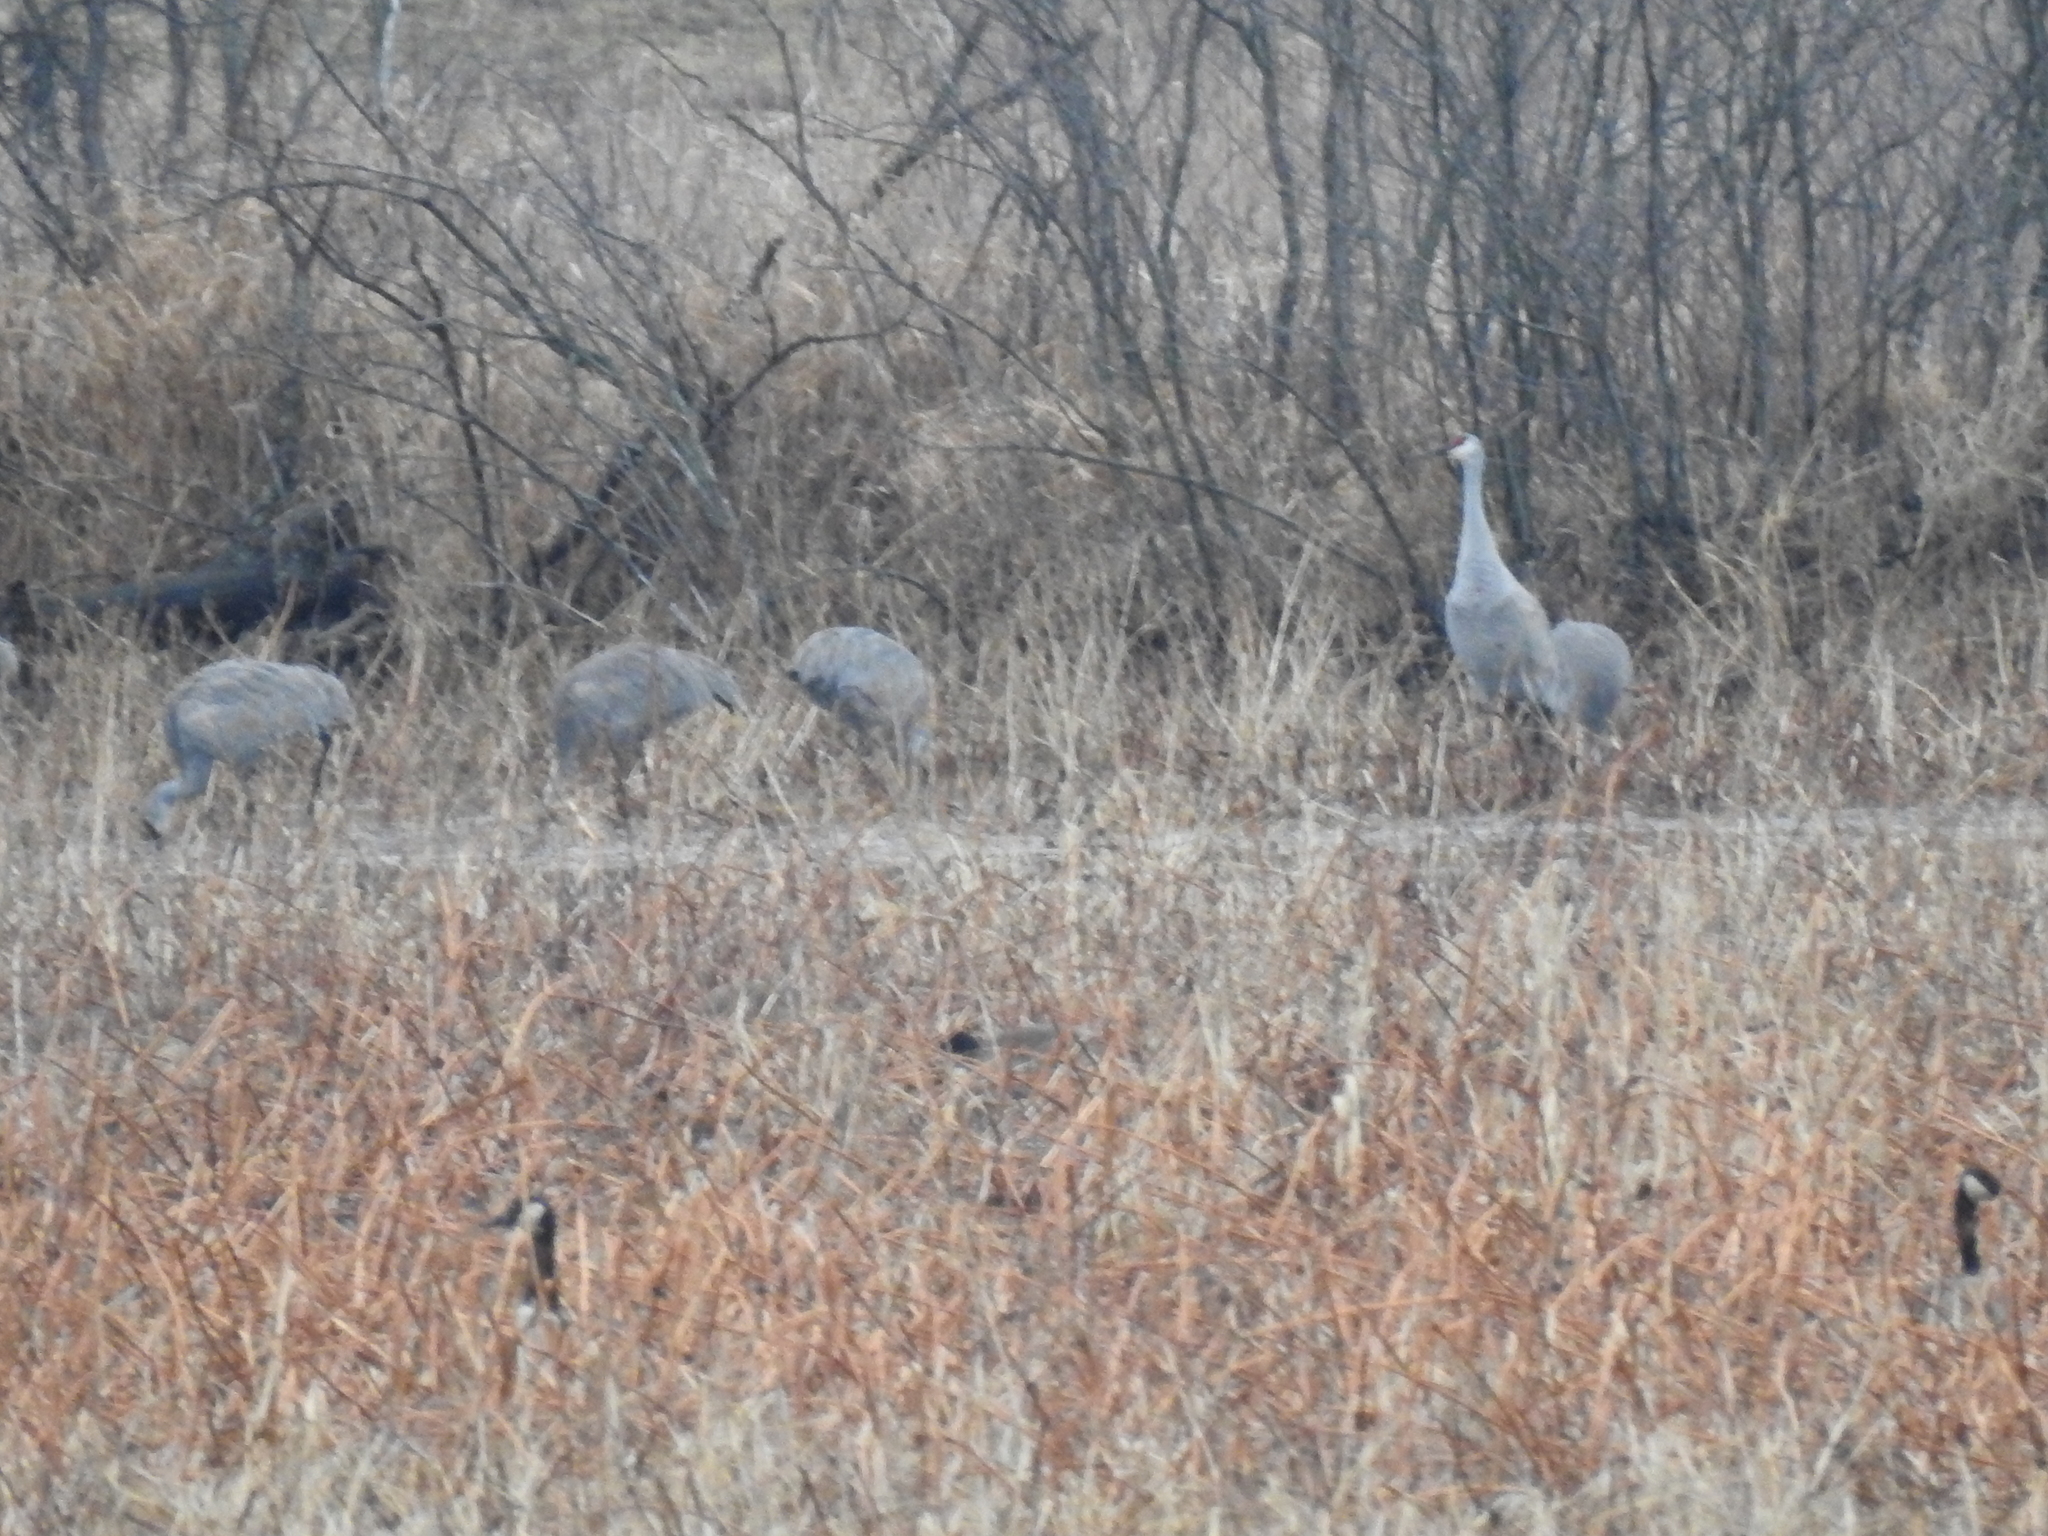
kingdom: Animalia
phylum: Chordata
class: Aves
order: Gruiformes
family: Gruidae
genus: Grus
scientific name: Grus canadensis
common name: Sandhill crane
